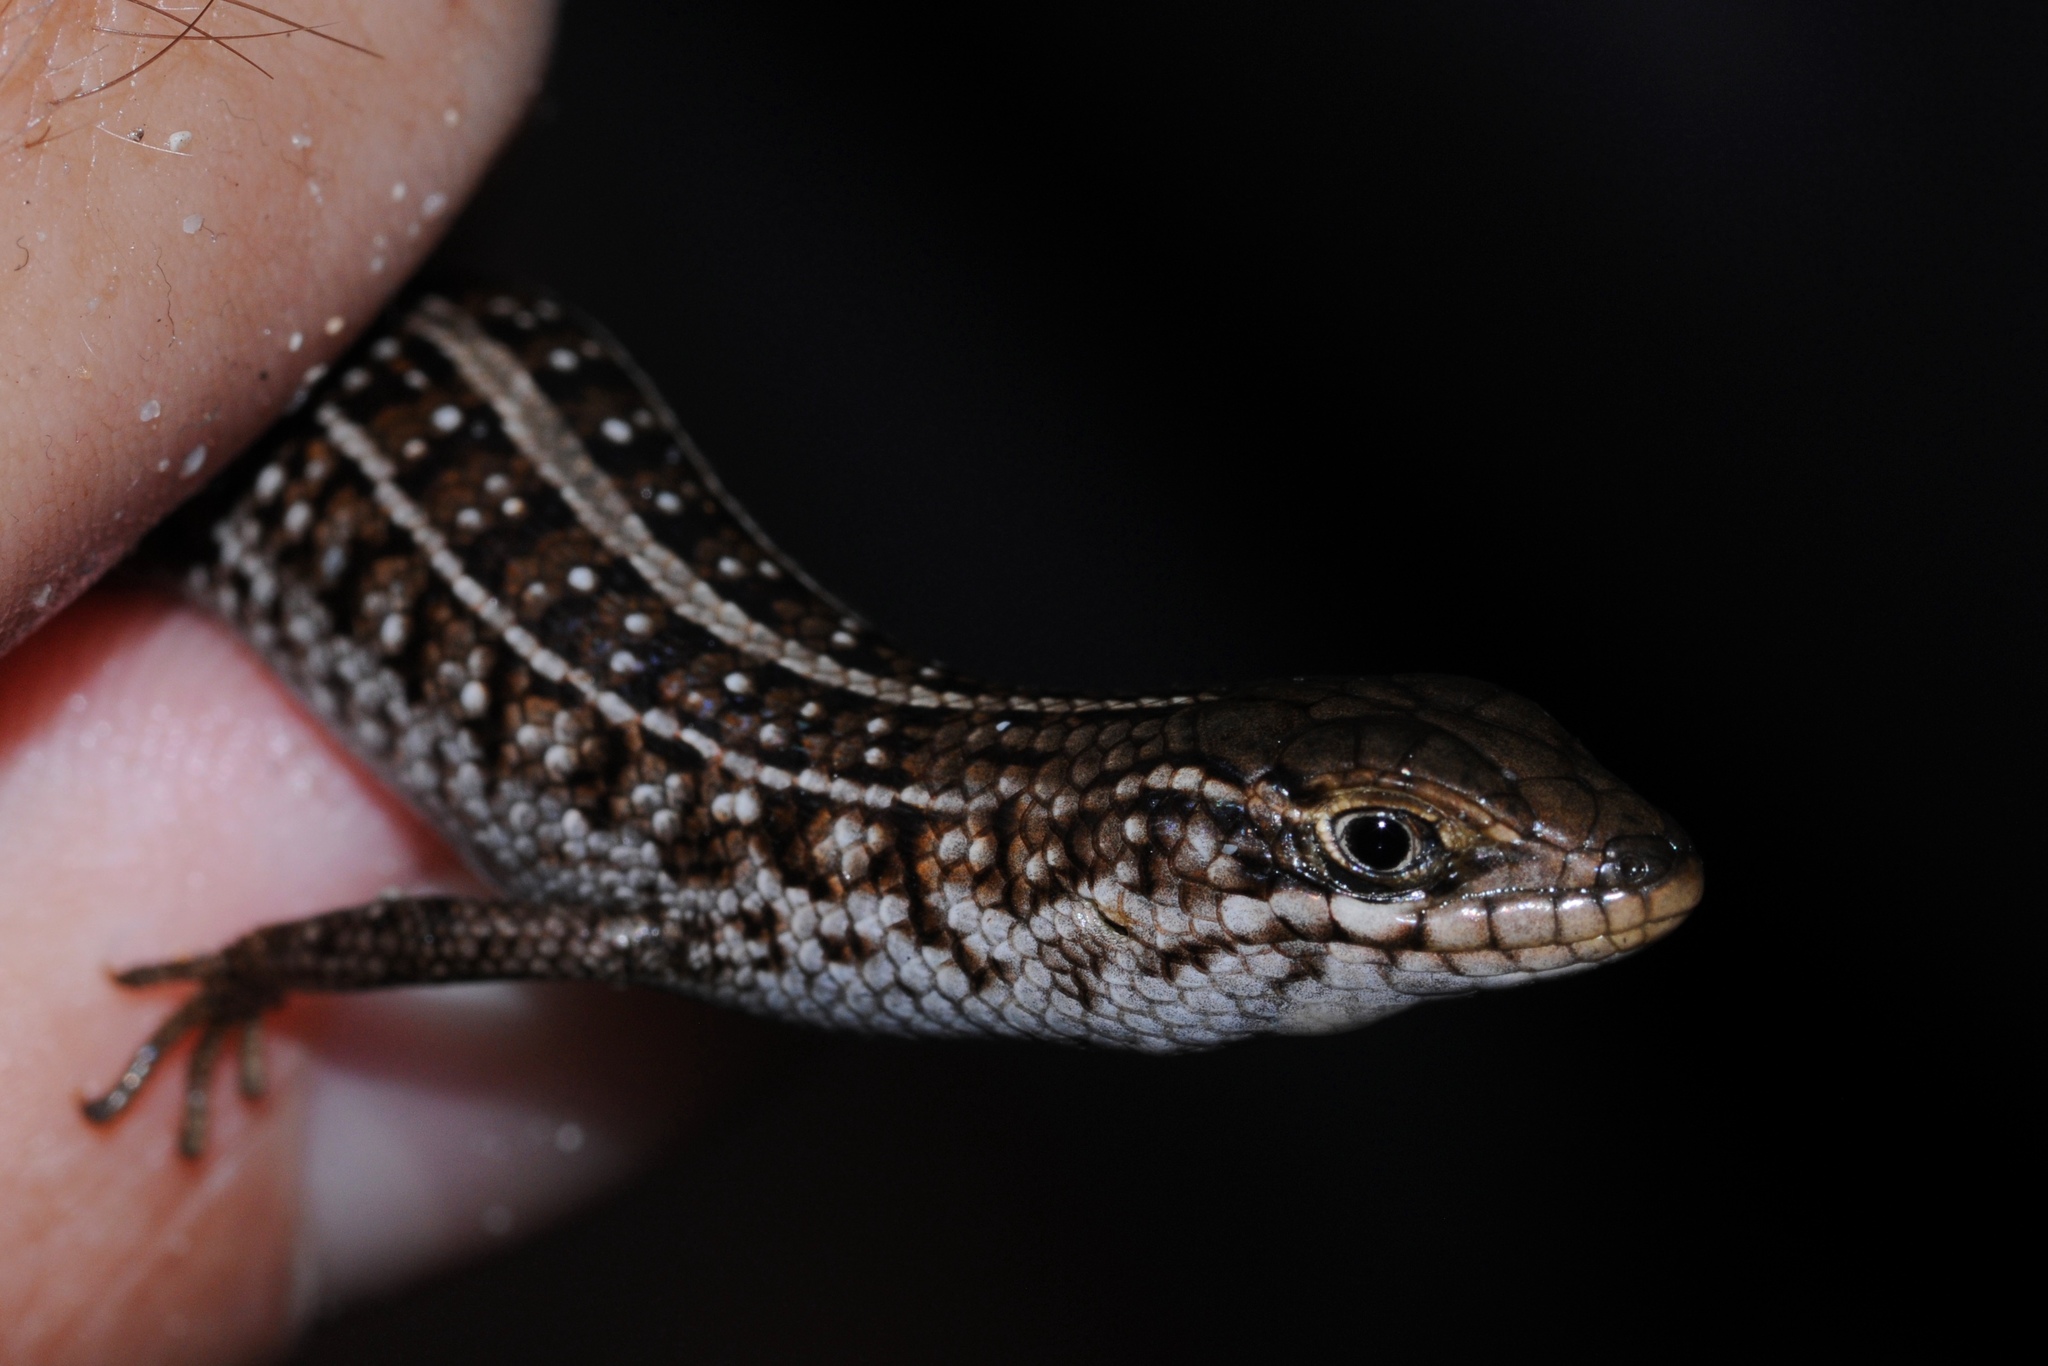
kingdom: Animalia
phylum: Chordata
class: Squamata
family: Scincidae
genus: Trachylepis
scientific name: Trachylepis capensis
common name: Cape skink
